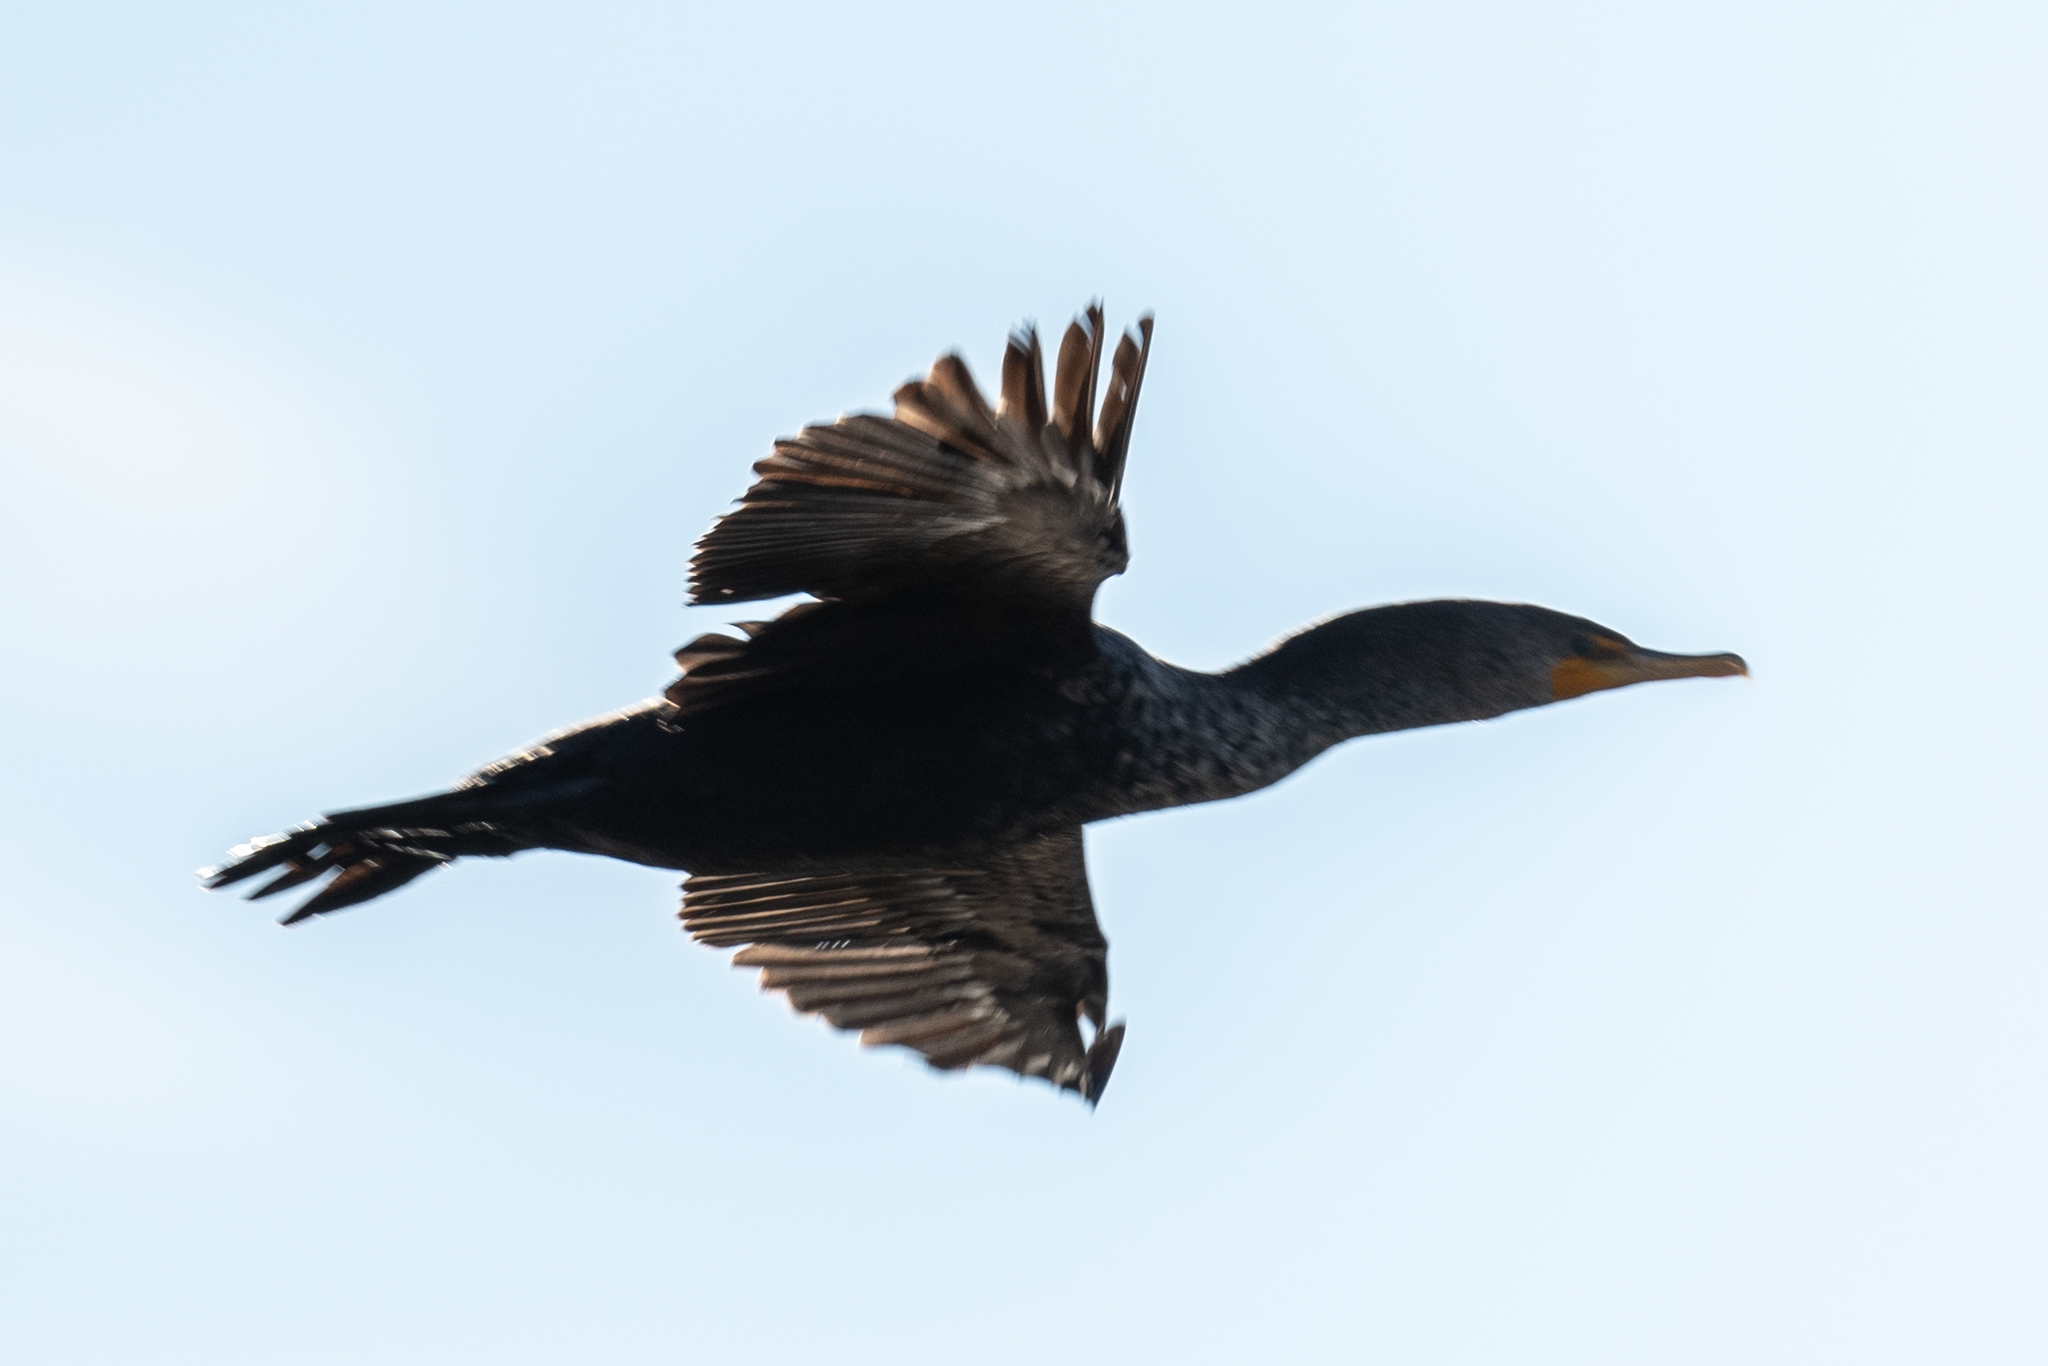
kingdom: Animalia
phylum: Chordata
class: Aves
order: Suliformes
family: Phalacrocoracidae
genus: Phalacrocorax
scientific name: Phalacrocorax auritus
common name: Double-crested cormorant
